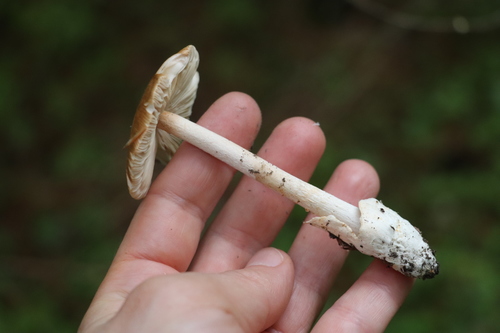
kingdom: Fungi
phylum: Basidiomycota
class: Agaricomycetes
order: Agaricales
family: Amanitaceae
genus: Amanita
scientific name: Amanita crocea
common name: Orange grisette
